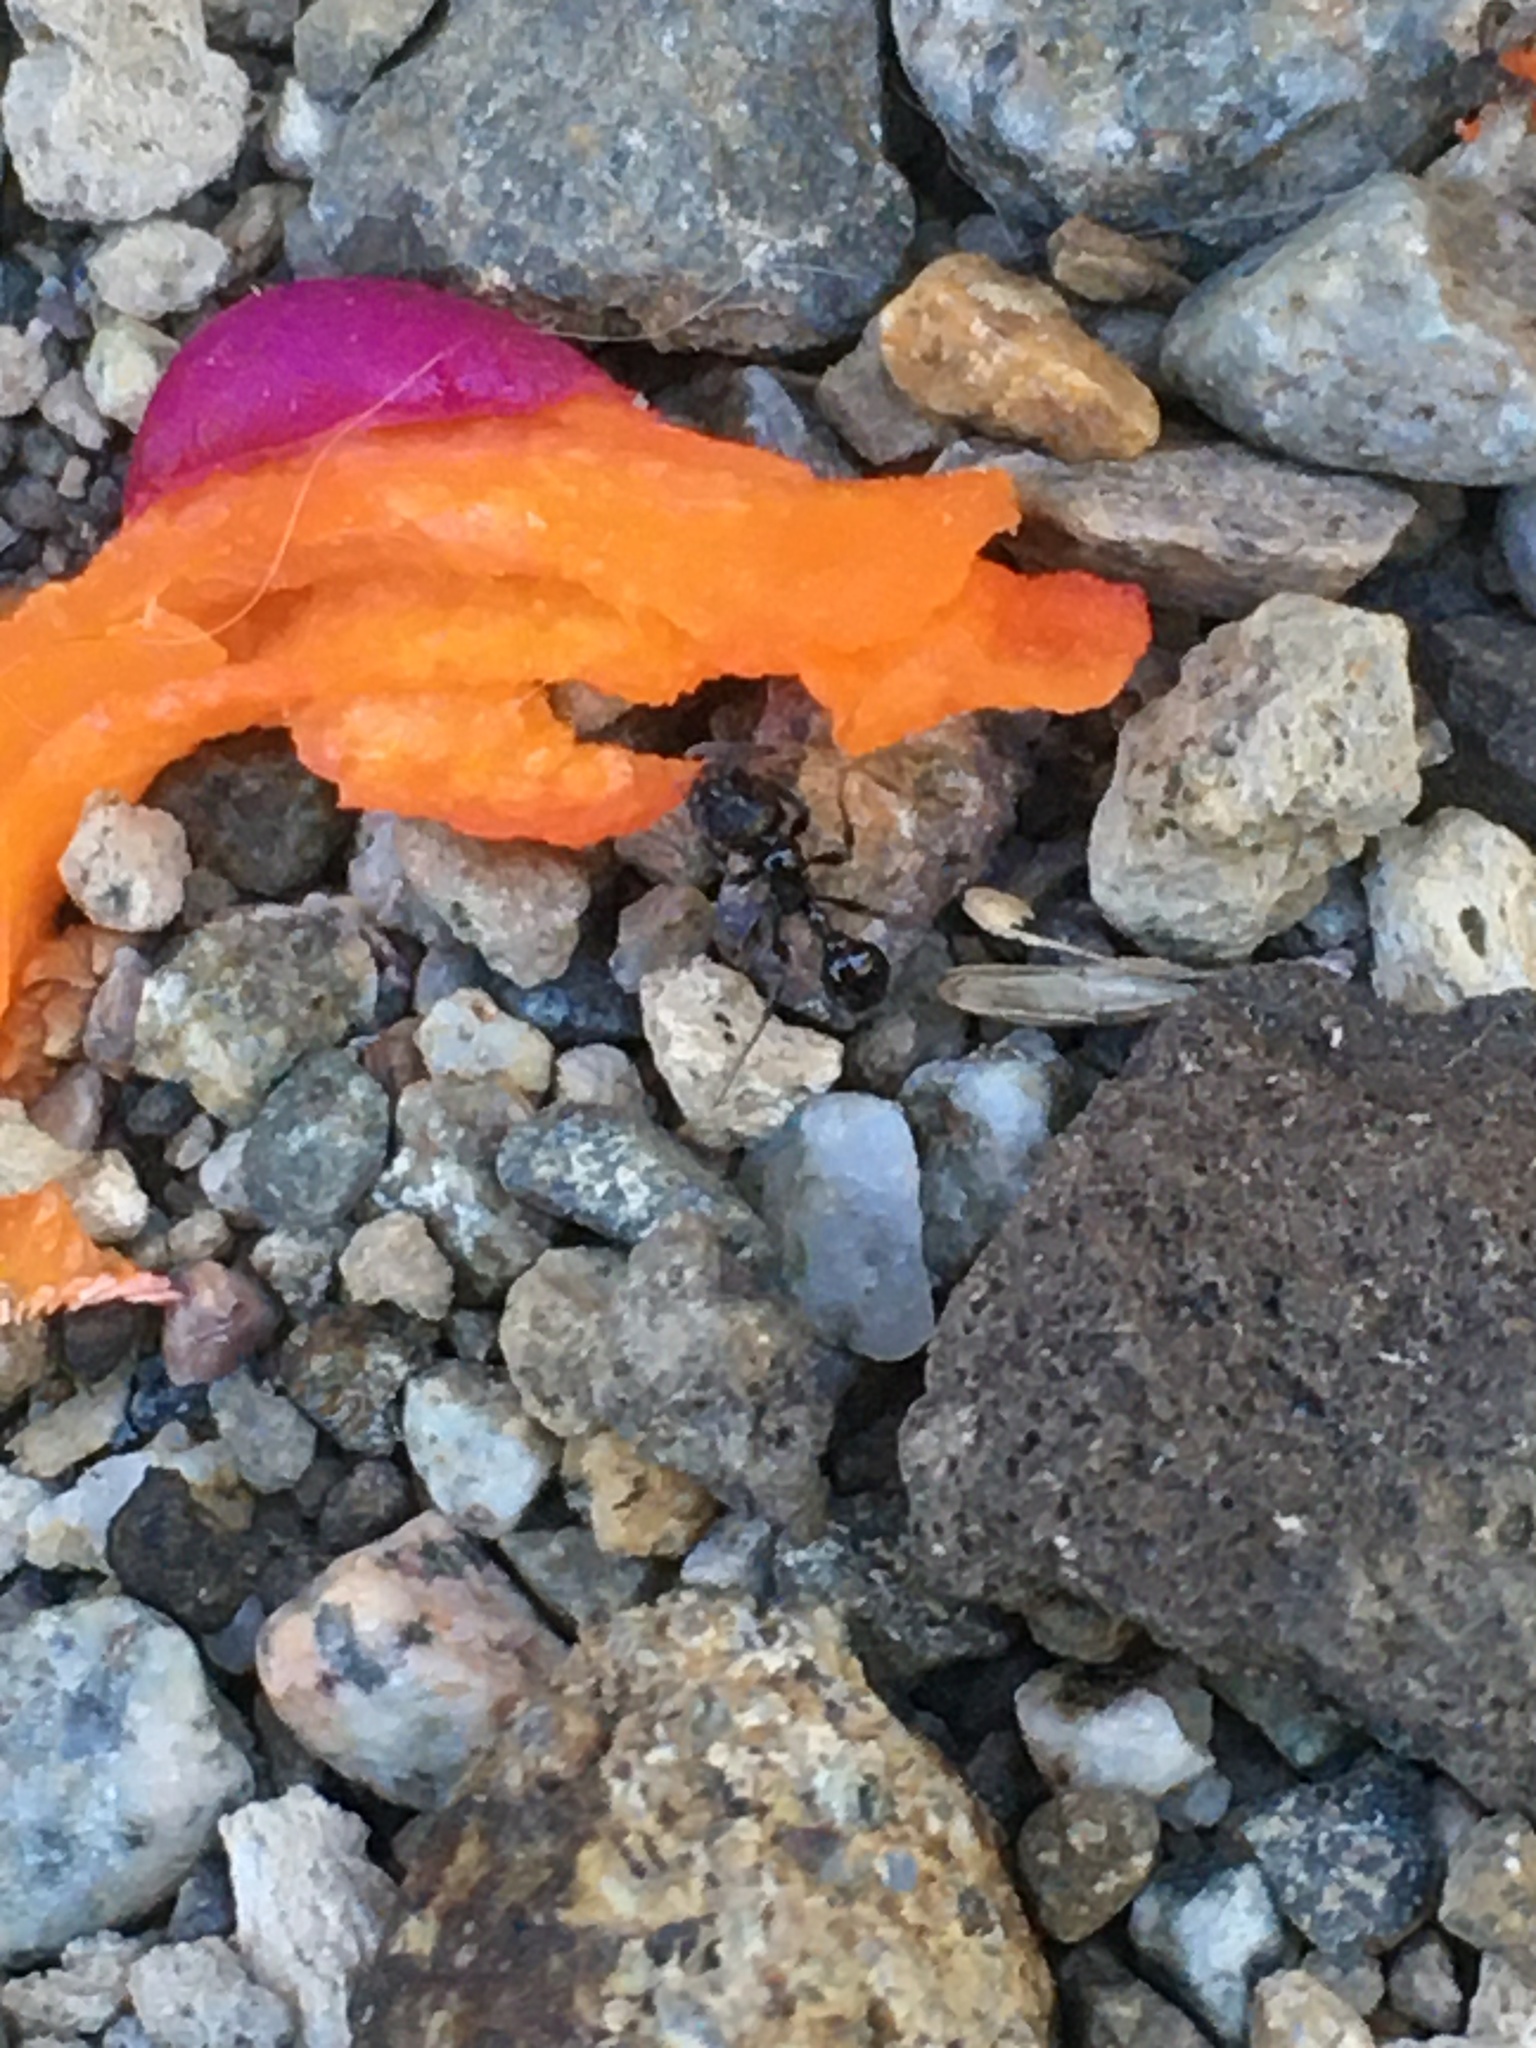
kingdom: Animalia
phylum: Arthropoda
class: Insecta
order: Hymenoptera
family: Formicidae
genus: Patagonomyrmex
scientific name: Patagonomyrmex angustus
